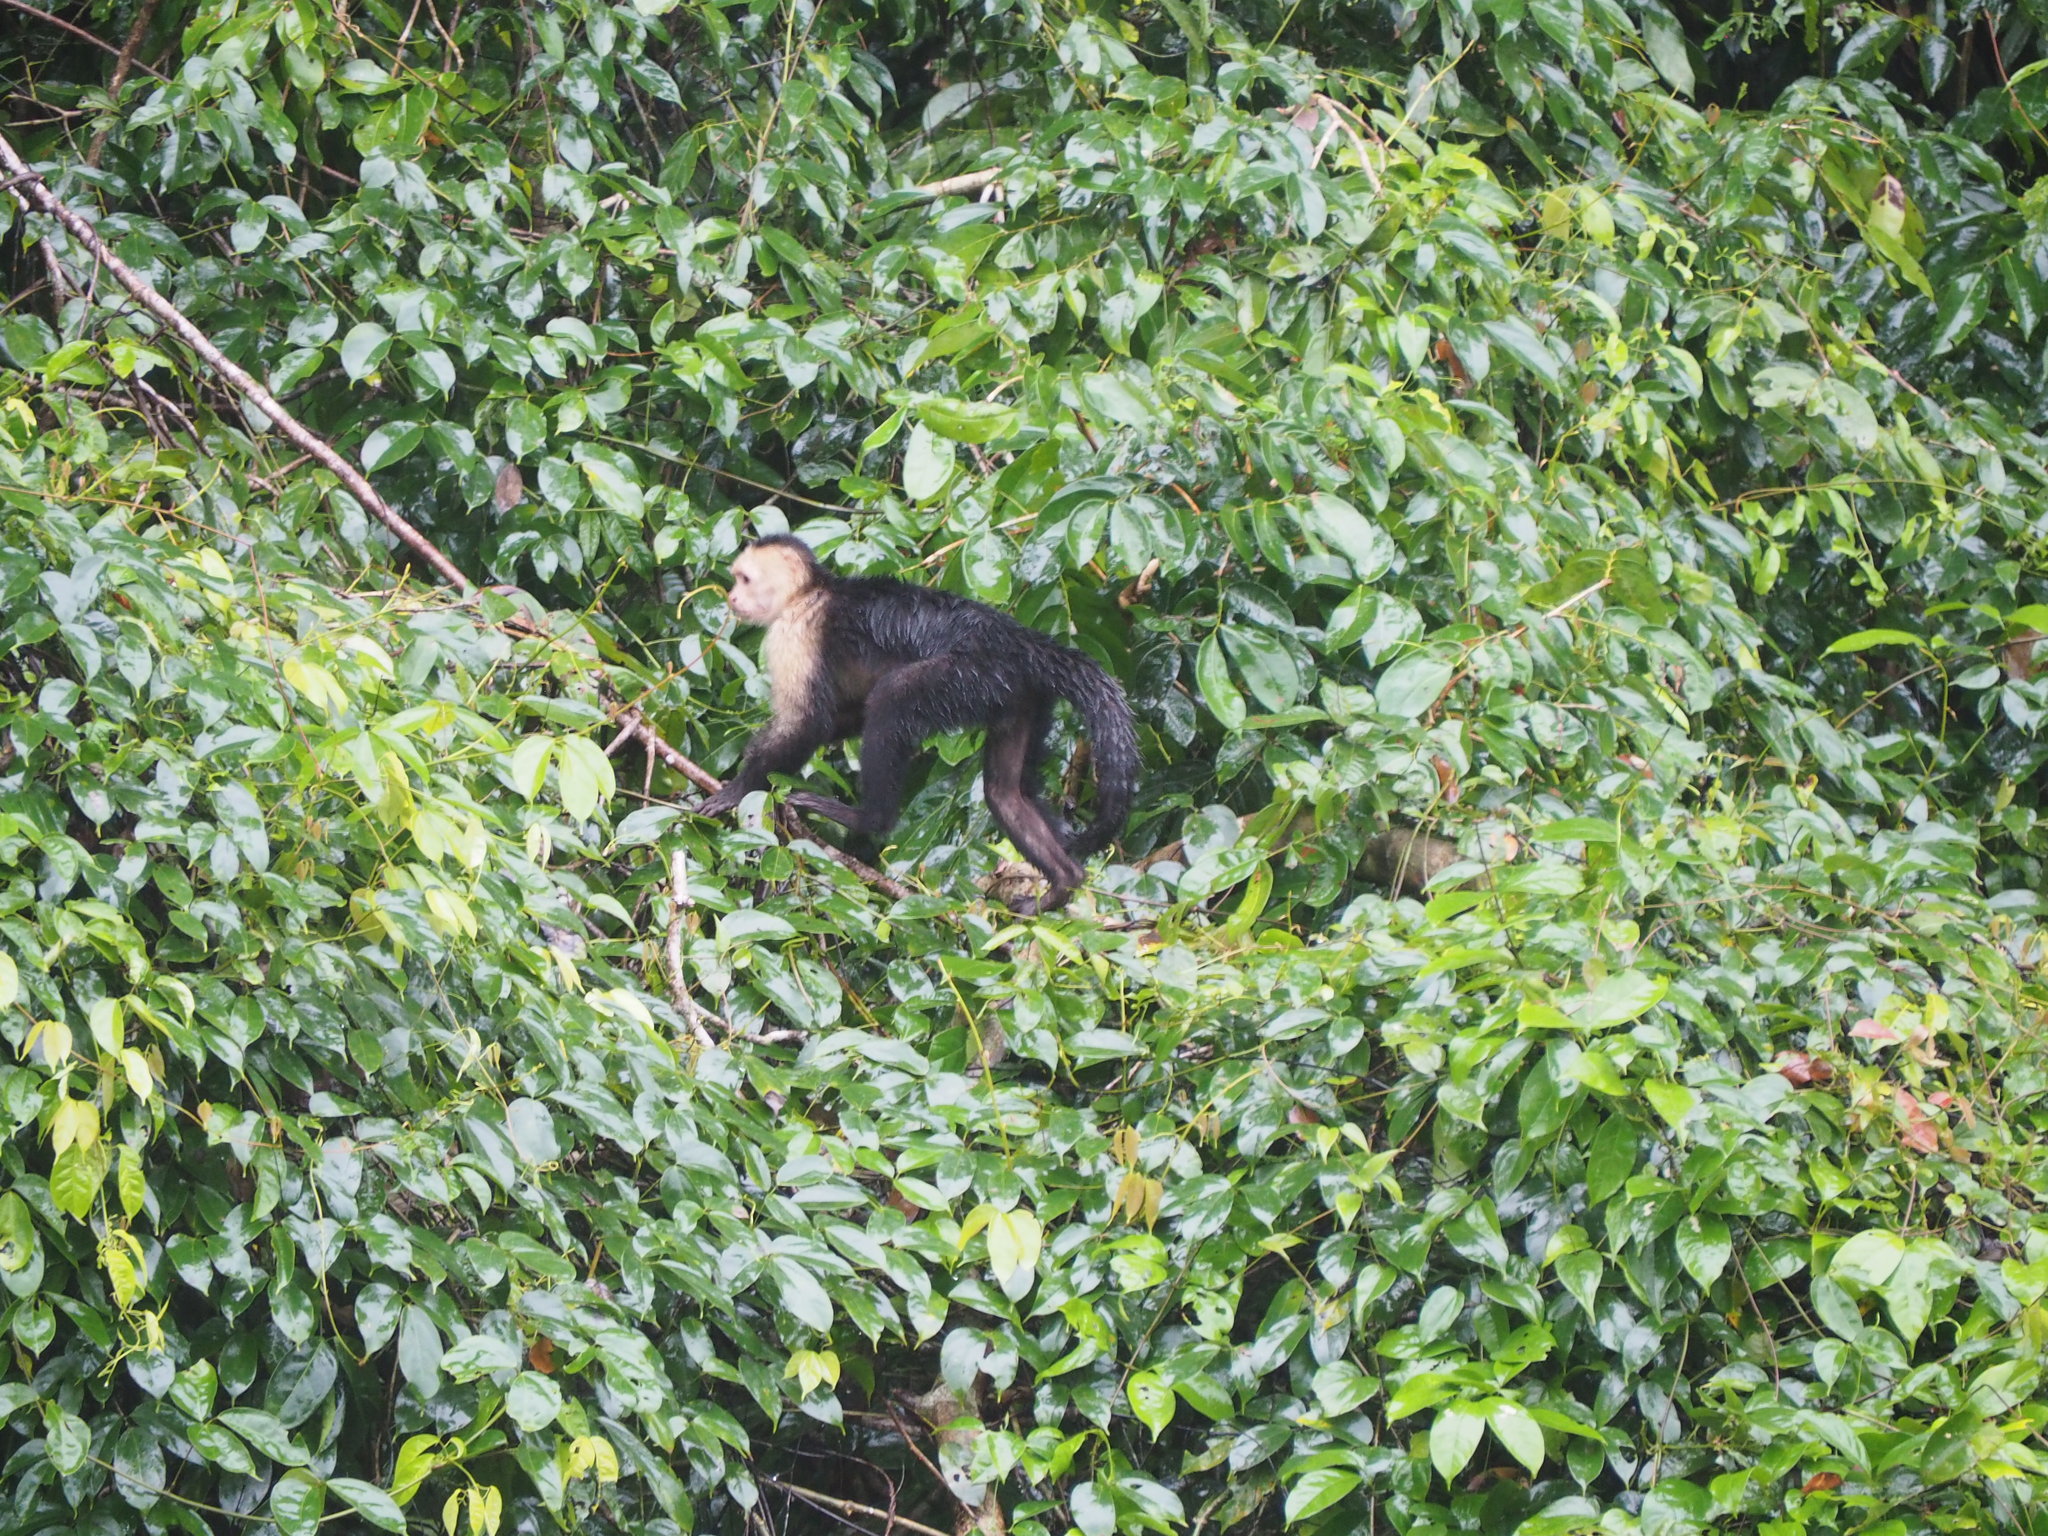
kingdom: Animalia
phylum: Chordata
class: Mammalia
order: Primates
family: Cebidae
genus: Cebus
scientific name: Cebus imitator
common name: Panamanian white-faced capuchin
